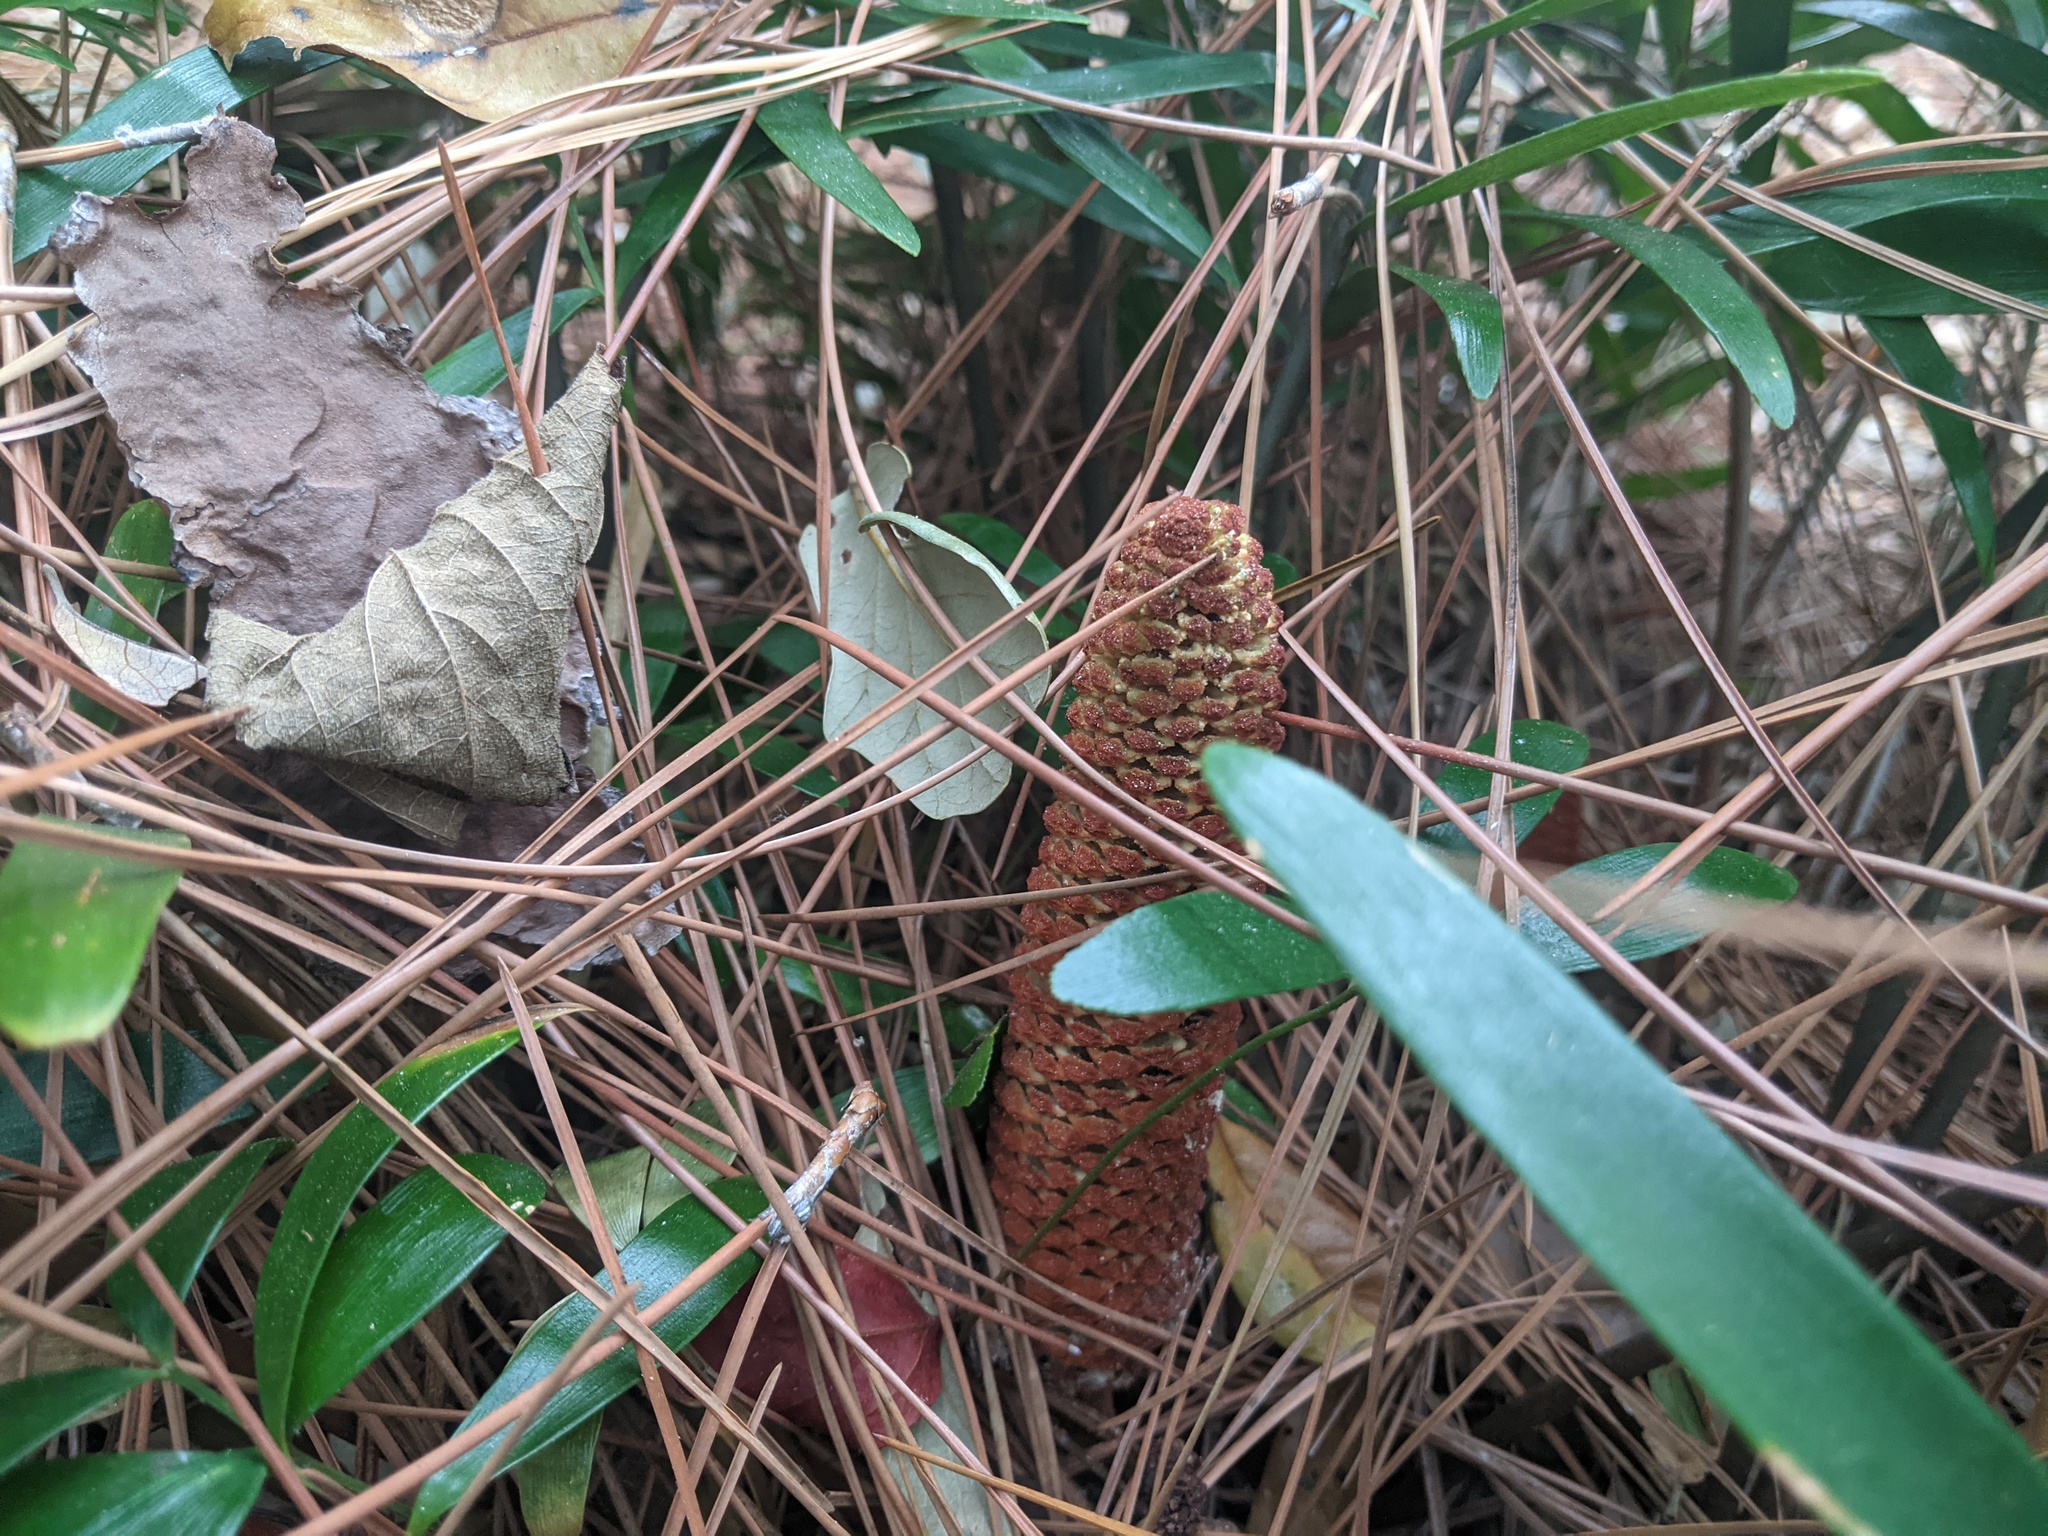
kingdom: Plantae
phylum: Tracheophyta
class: Cycadopsida
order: Cycadales
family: Zamiaceae
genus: Zamia
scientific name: Zamia integrifolia
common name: Florida arrowroot
